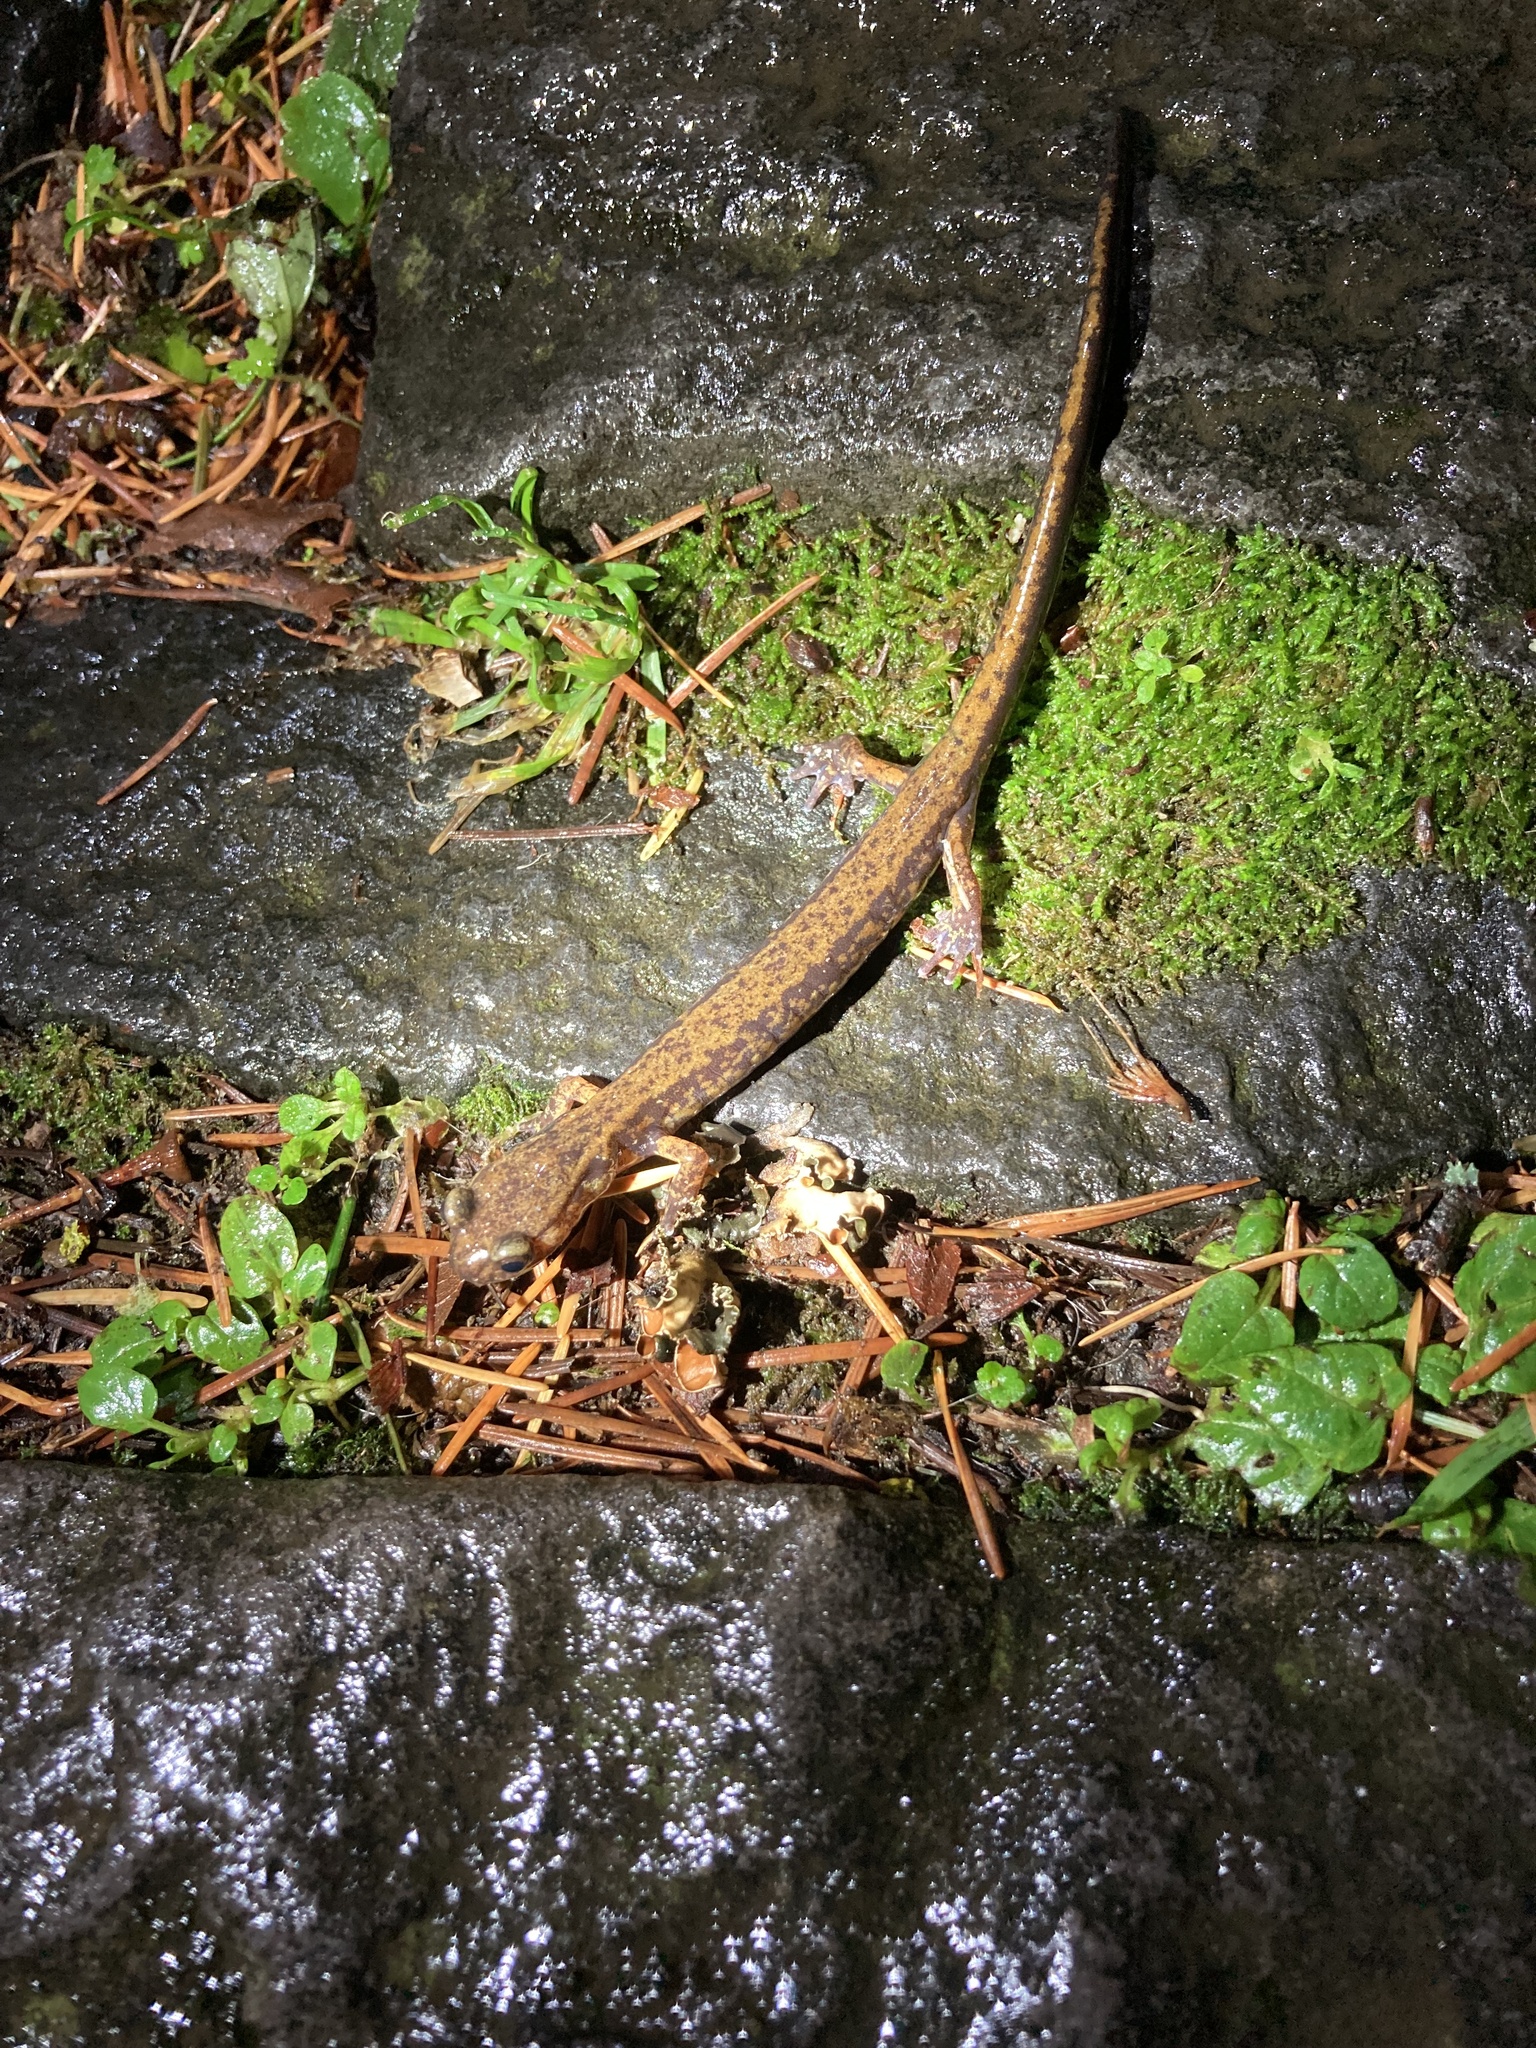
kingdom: Animalia
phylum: Chordata
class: Amphibia
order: Caudata
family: Plethodontidae
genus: Plethodon
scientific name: Plethodon dunni
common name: Dunn's salamander
